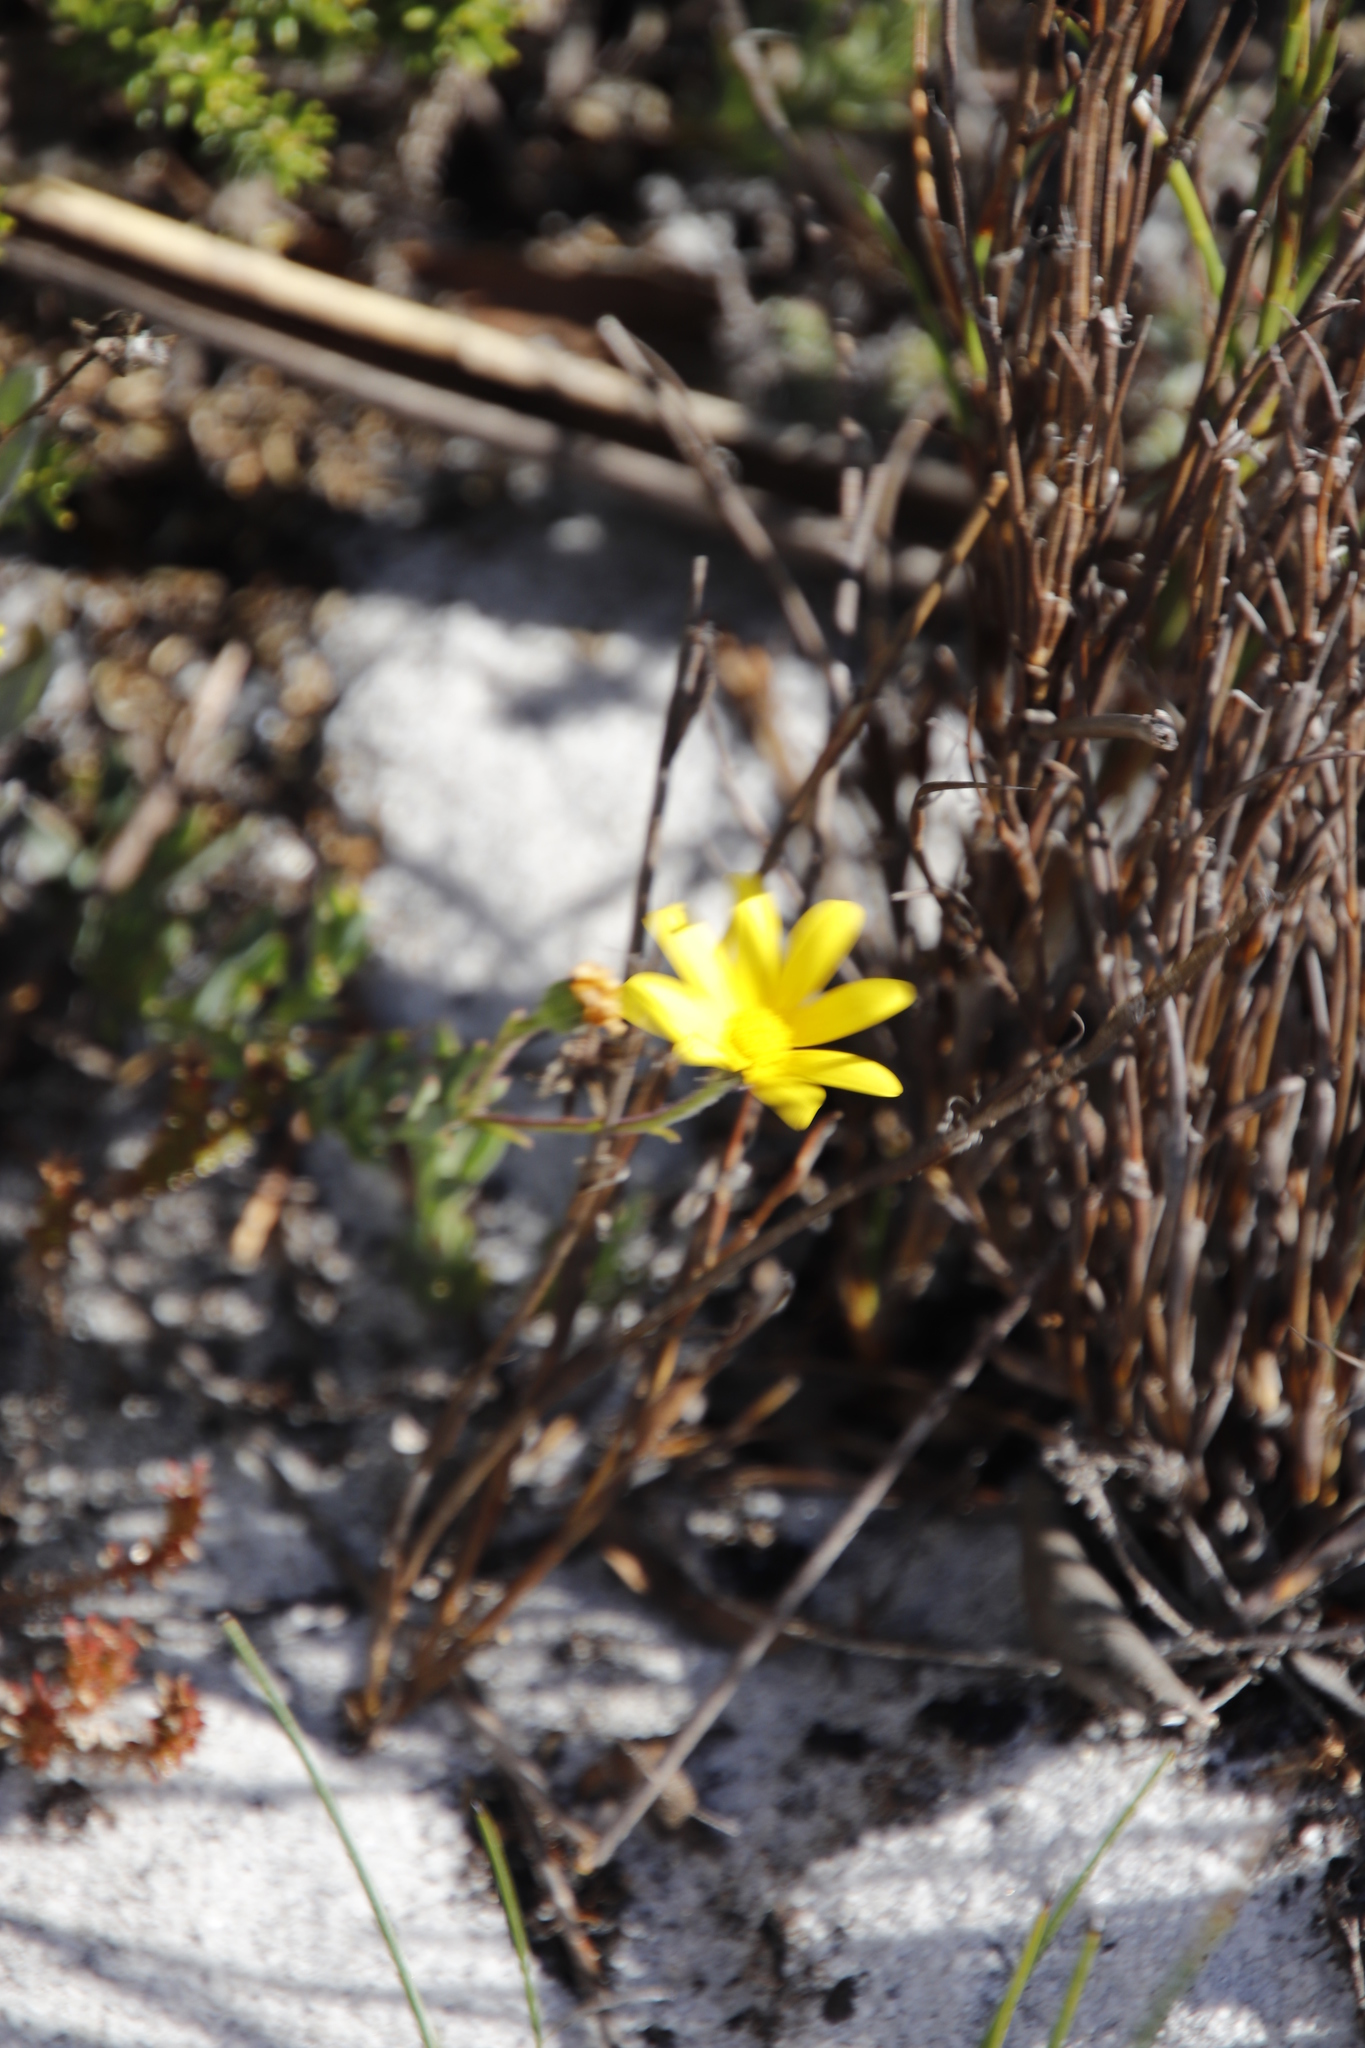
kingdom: Plantae
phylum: Tracheophyta
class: Magnoliopsida
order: Asterales
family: Asteraceae
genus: Osteospermum
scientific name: Osteospermum polygaloides
